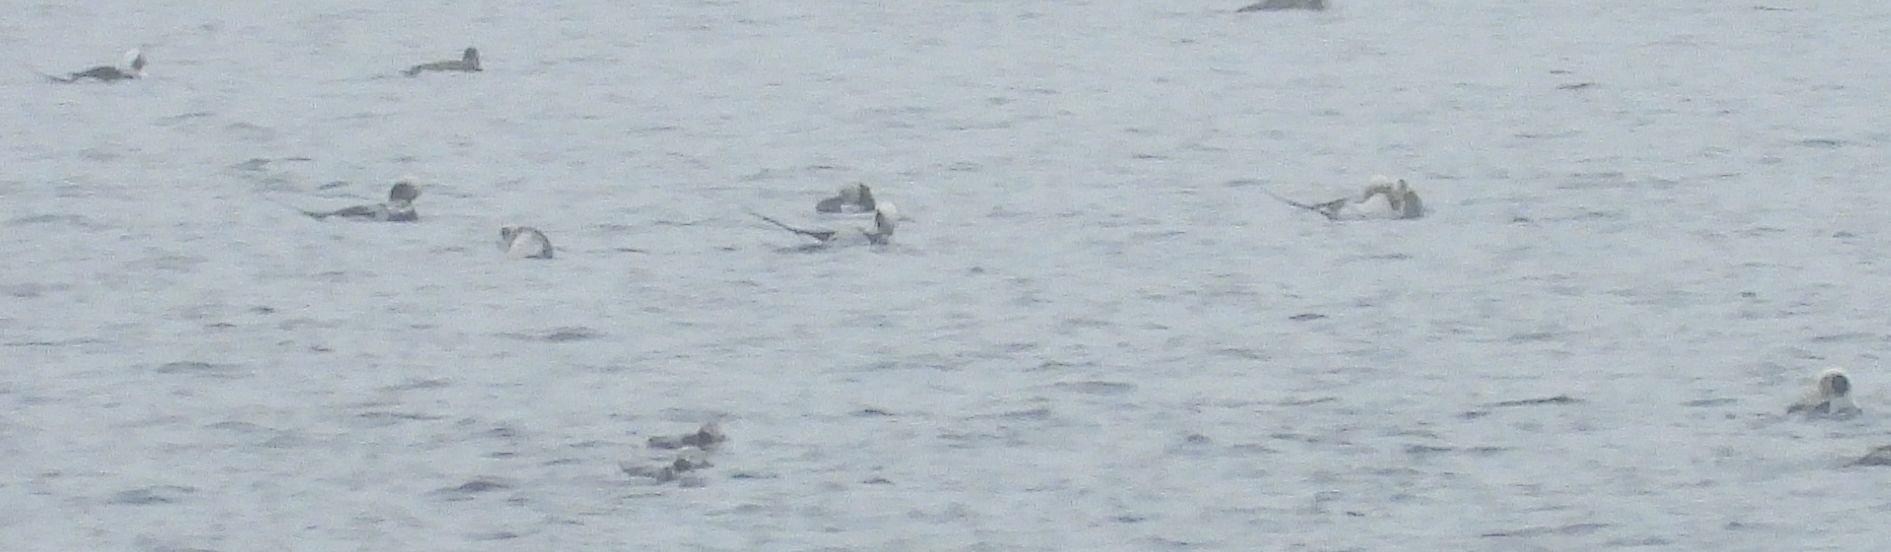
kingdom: Animalia
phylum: Chordata
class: Aves
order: Anseriformes
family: Anatidae
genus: Clangula
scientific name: Clangula hyemalis
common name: Long-tailed duck
